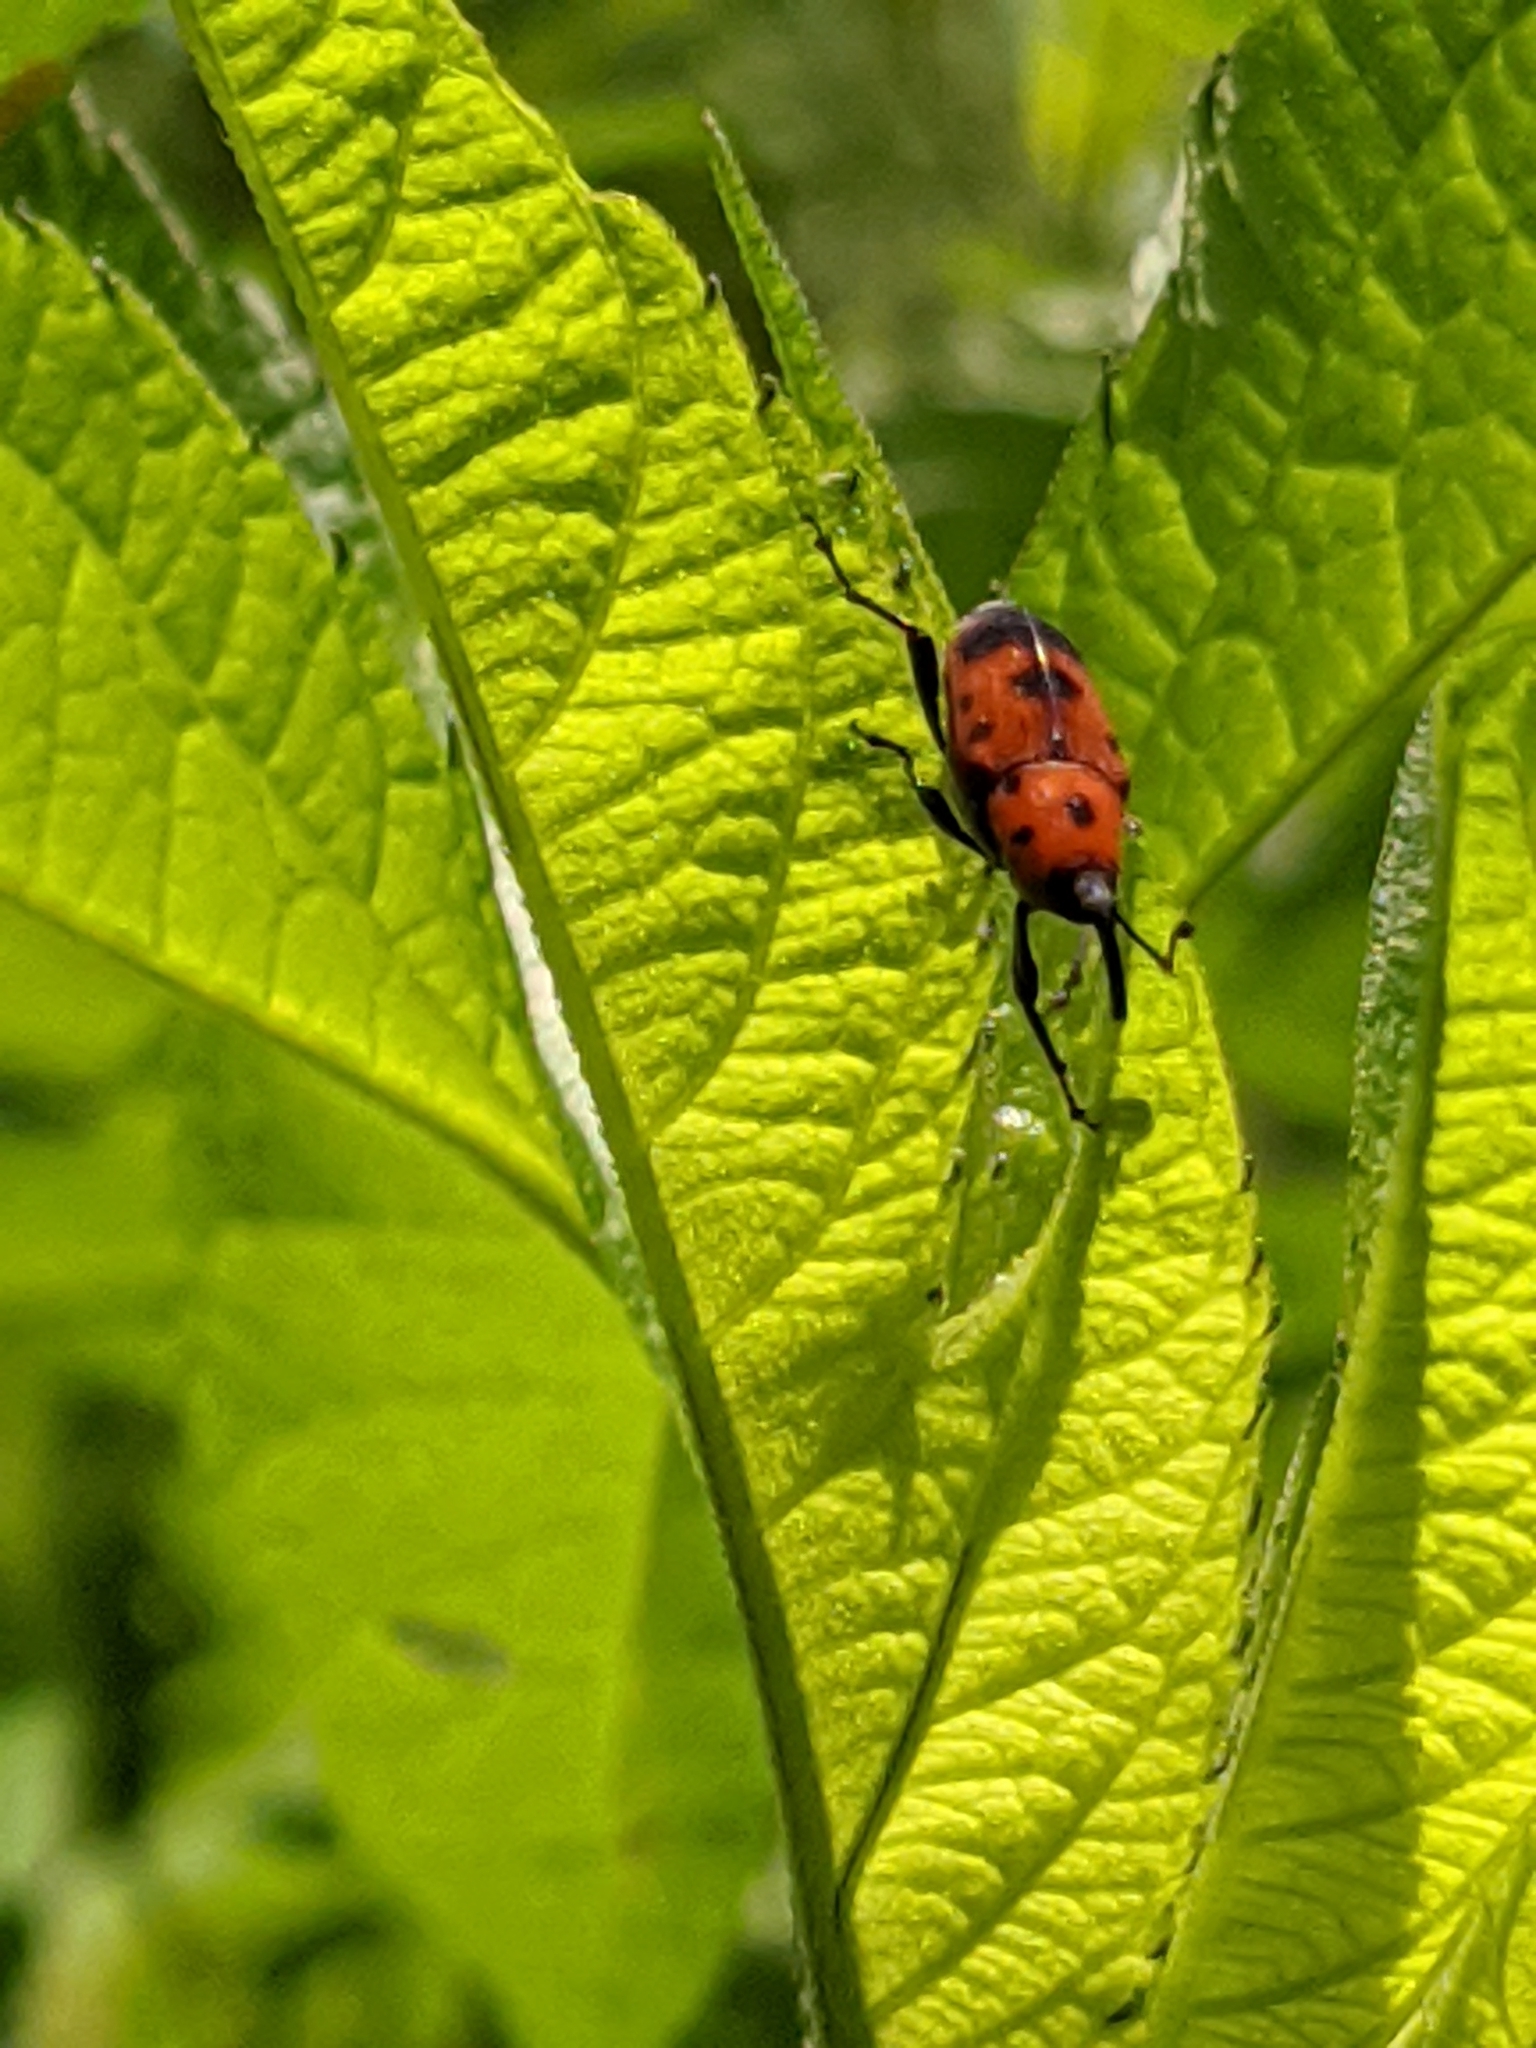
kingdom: Animalia
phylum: Arthropoda
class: Insecta
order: Coleoptera
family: Dryophthoridae
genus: Rhodobaenus
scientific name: Rhodobaenus quinquepunctatus
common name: Cocklebur weevil
